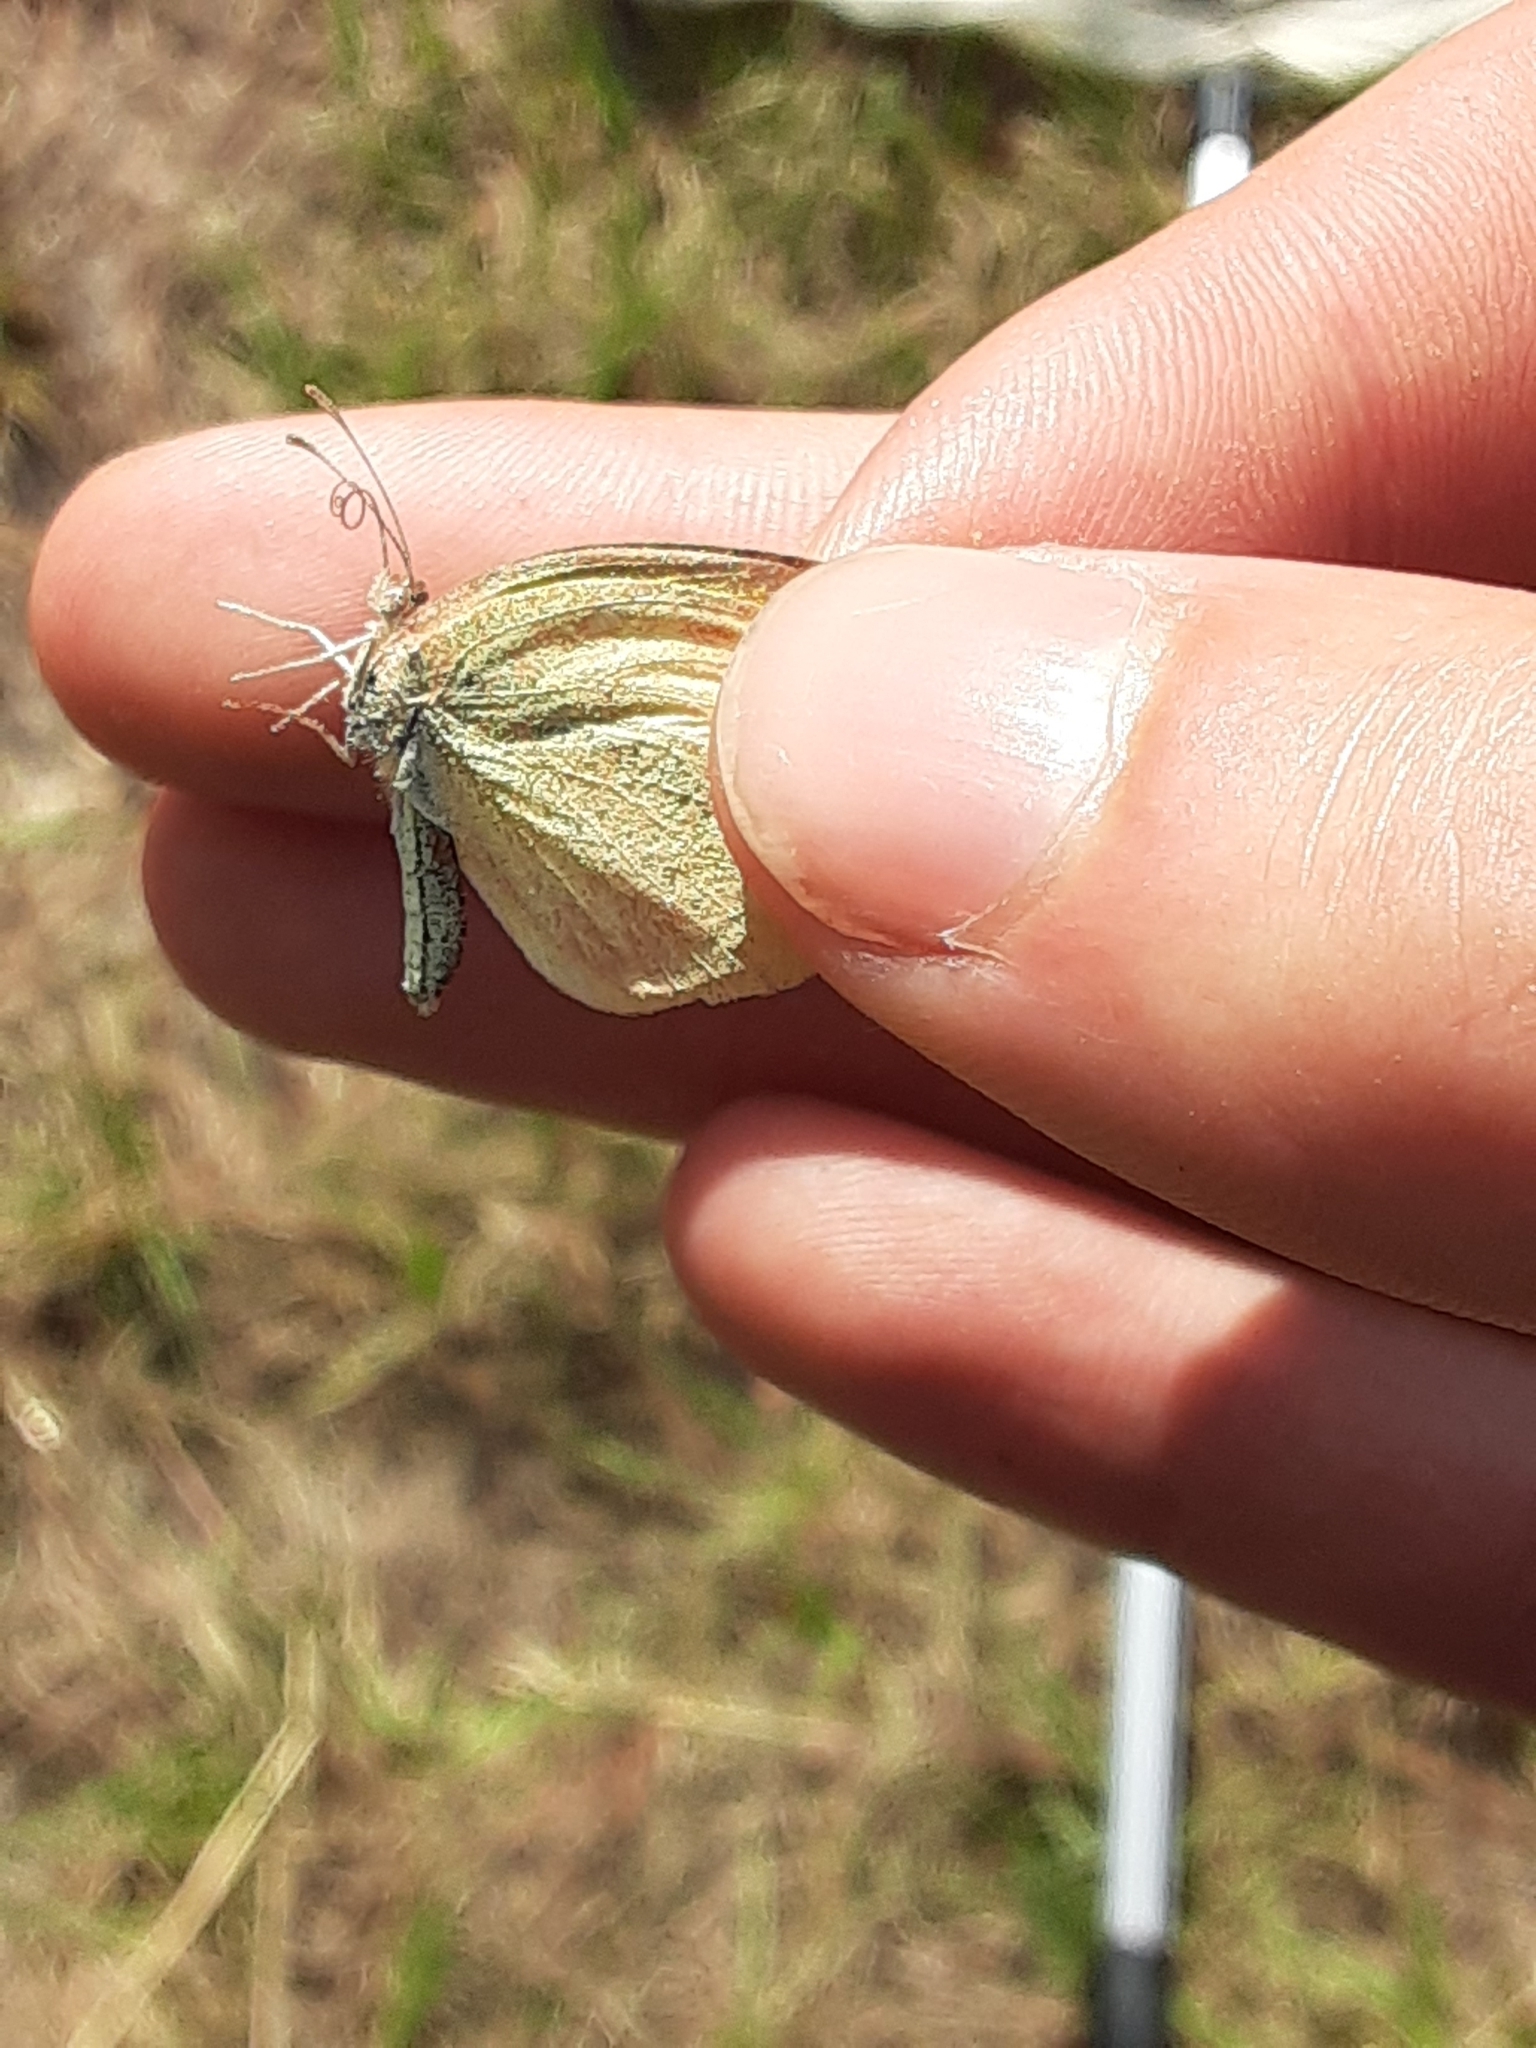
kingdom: Animalia
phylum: Arthropoda
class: Insecta
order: Lepidoptera
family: Pieridae
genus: Eurema
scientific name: Eurema daira
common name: Barred sulphur
